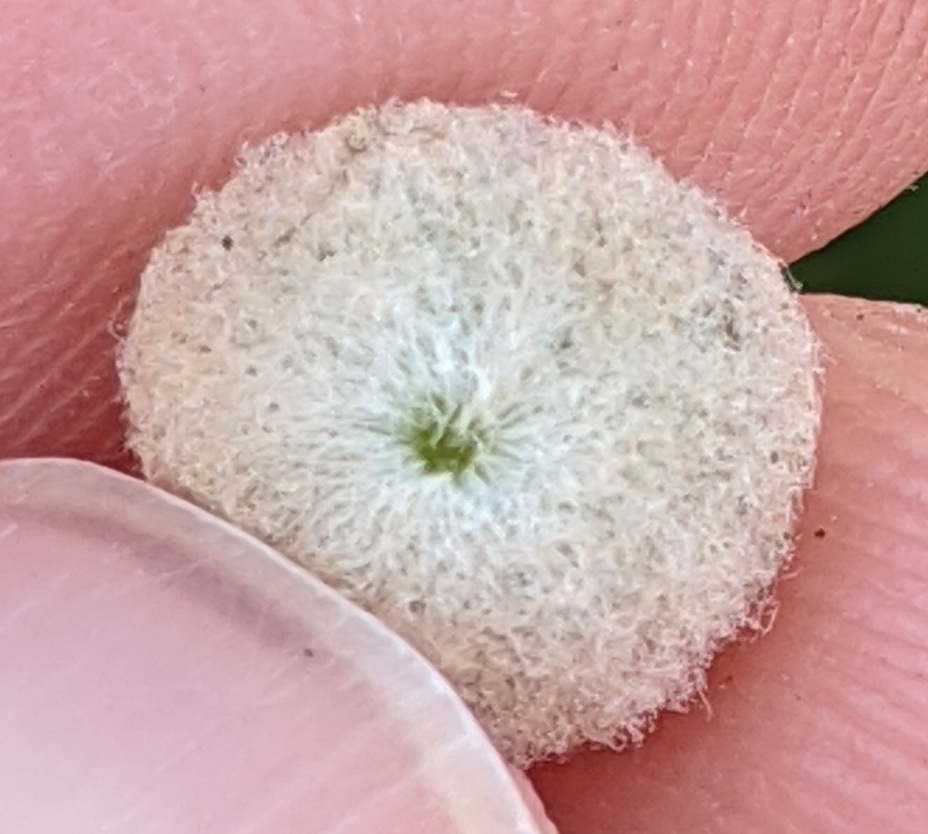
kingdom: Animalia
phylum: Arthropoda
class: Insecta
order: Hymenoptera
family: Cynipidae
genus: Callirhytis
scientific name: Callirhytis
